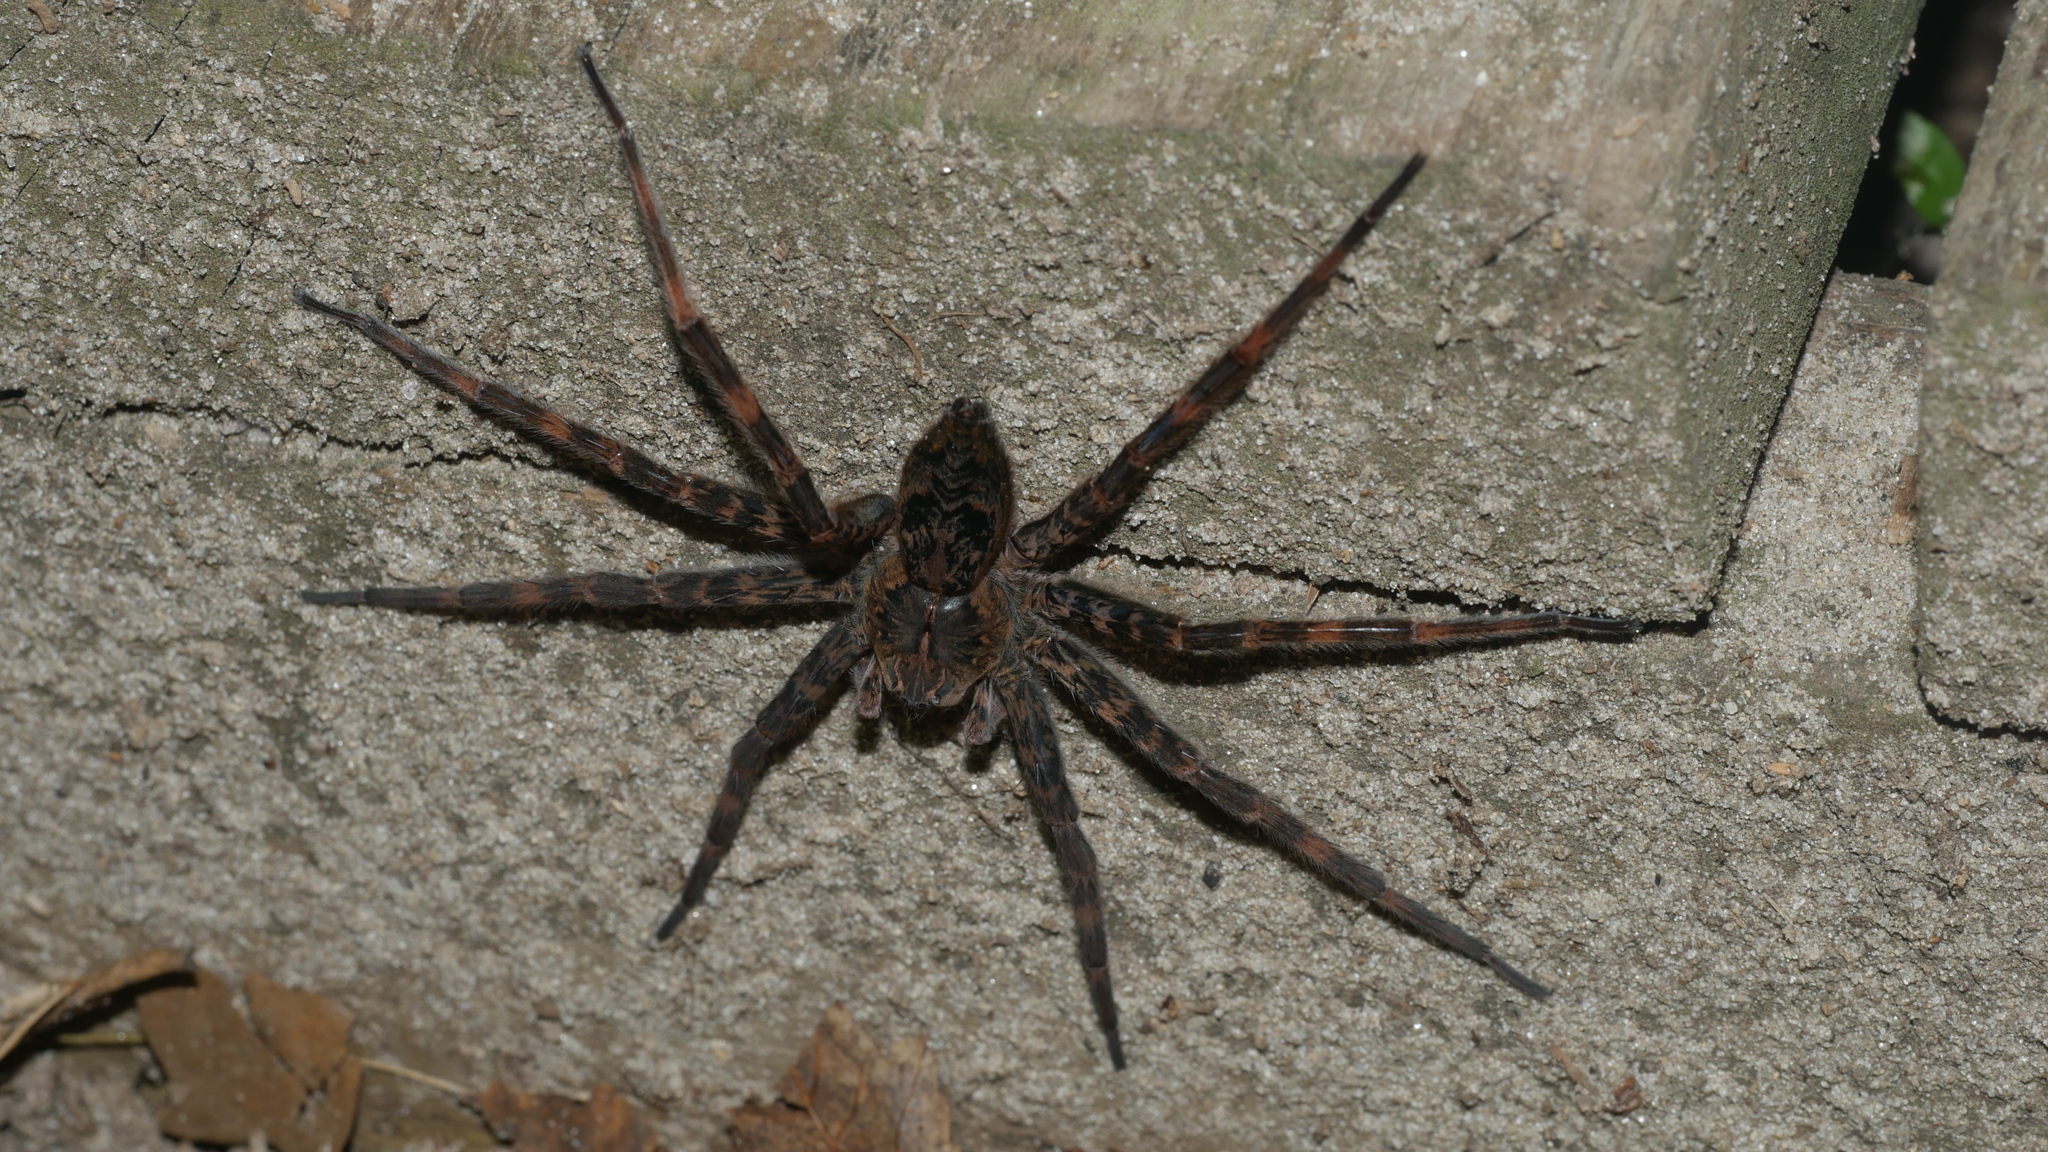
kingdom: Animalia
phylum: Arthropoda
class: Arachnida
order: Araneae
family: Pisauridae
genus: Dolomedes
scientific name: Dolomedes tenebrosus
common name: Dark fishing spider
